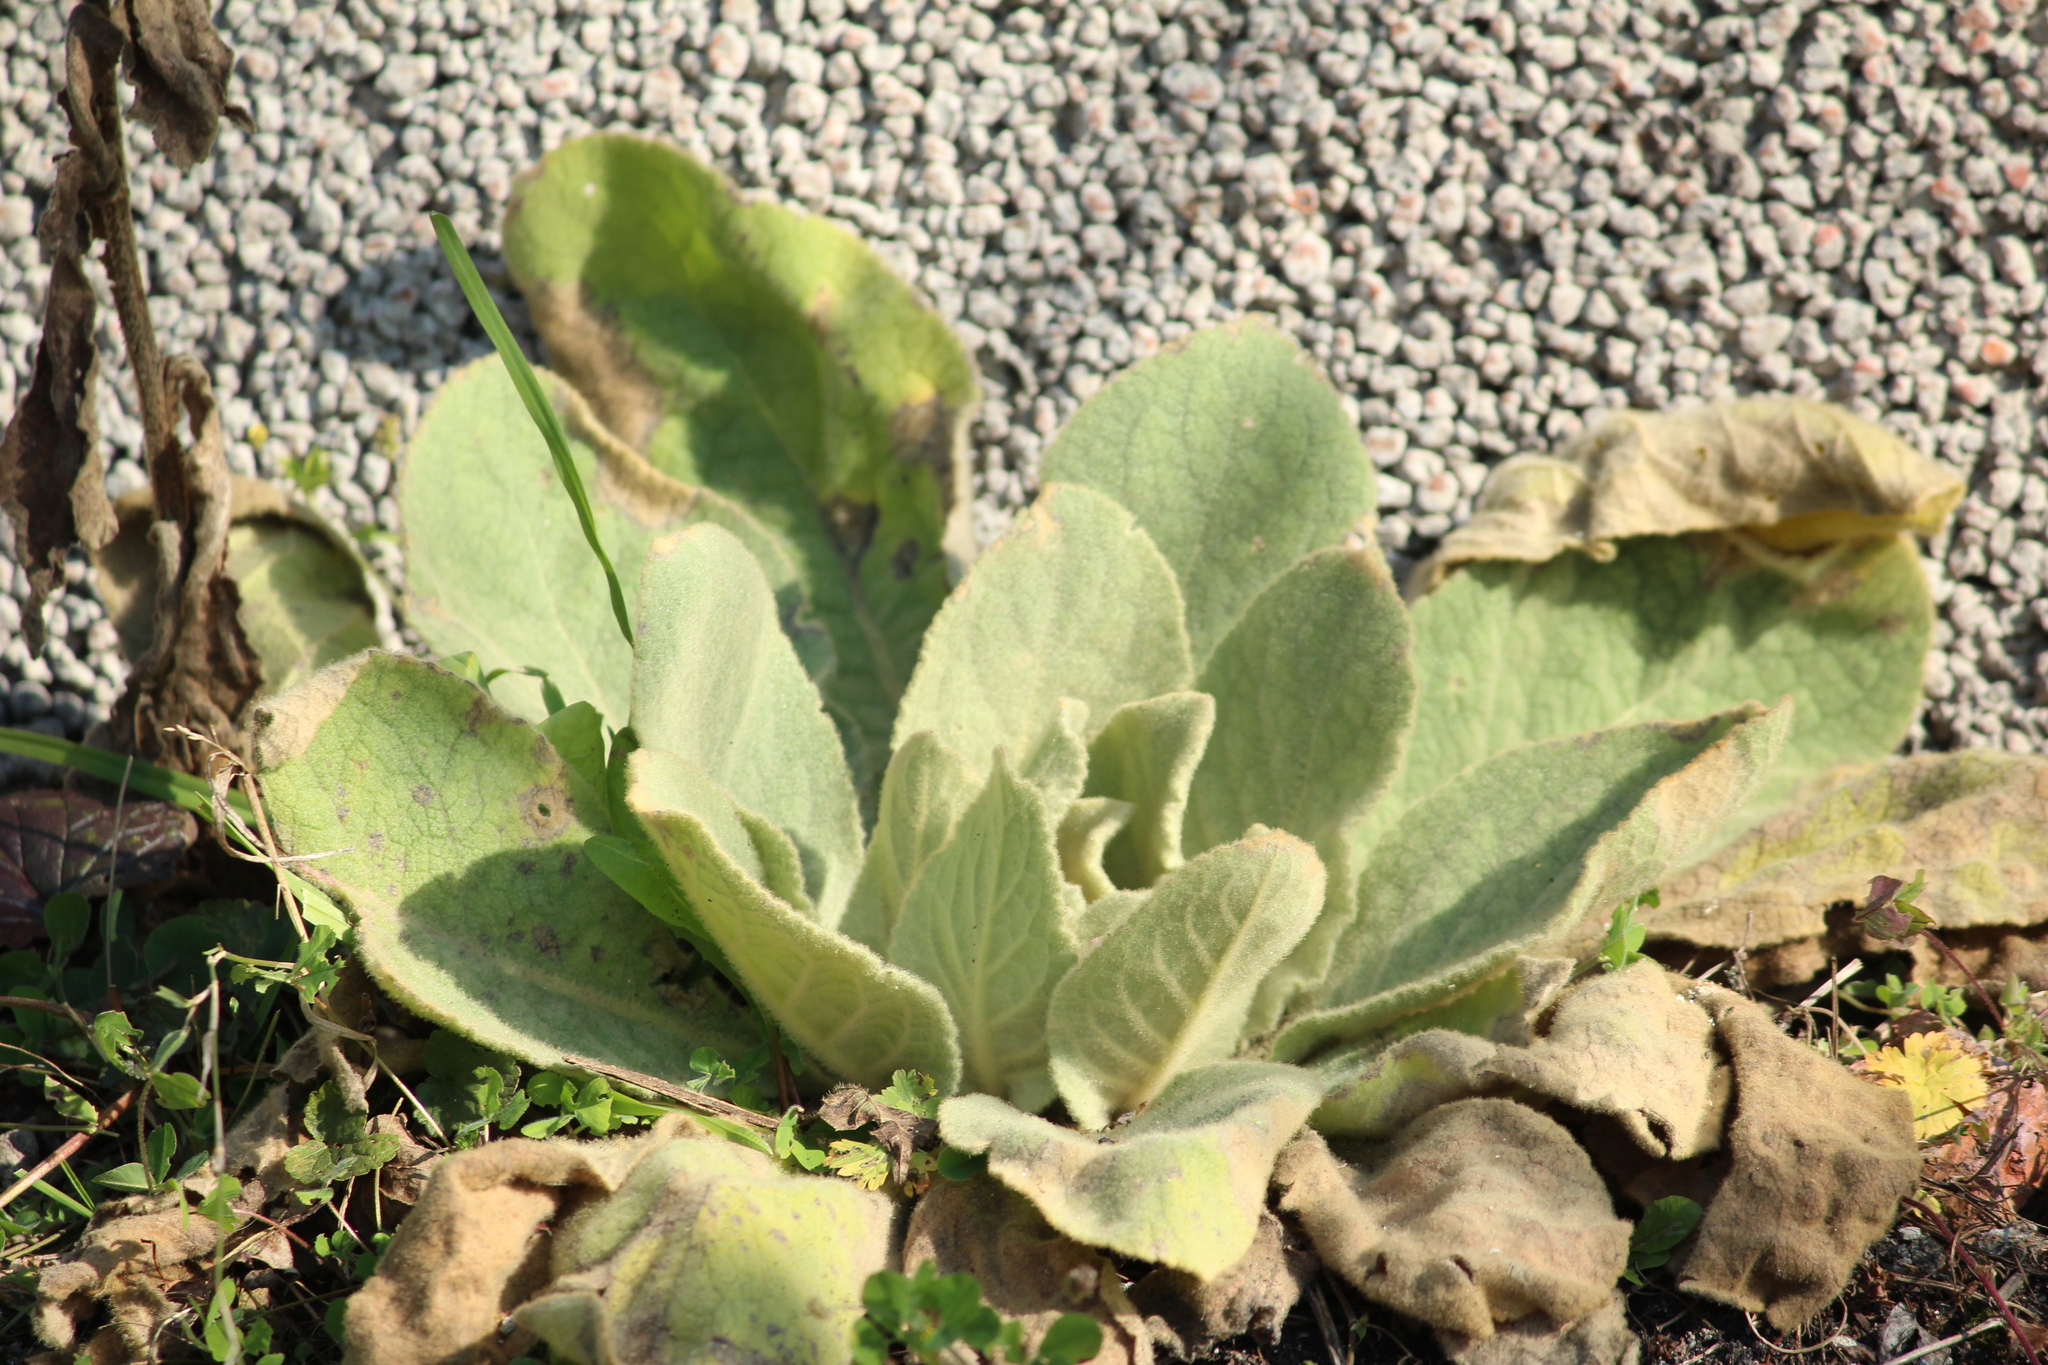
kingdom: Plantae
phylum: Tracheophyta
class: Magnoliopsida
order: Lamiales
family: Scrophulariaceae
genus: Verbascum
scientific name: Verbascum thapsus
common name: Common mullein
